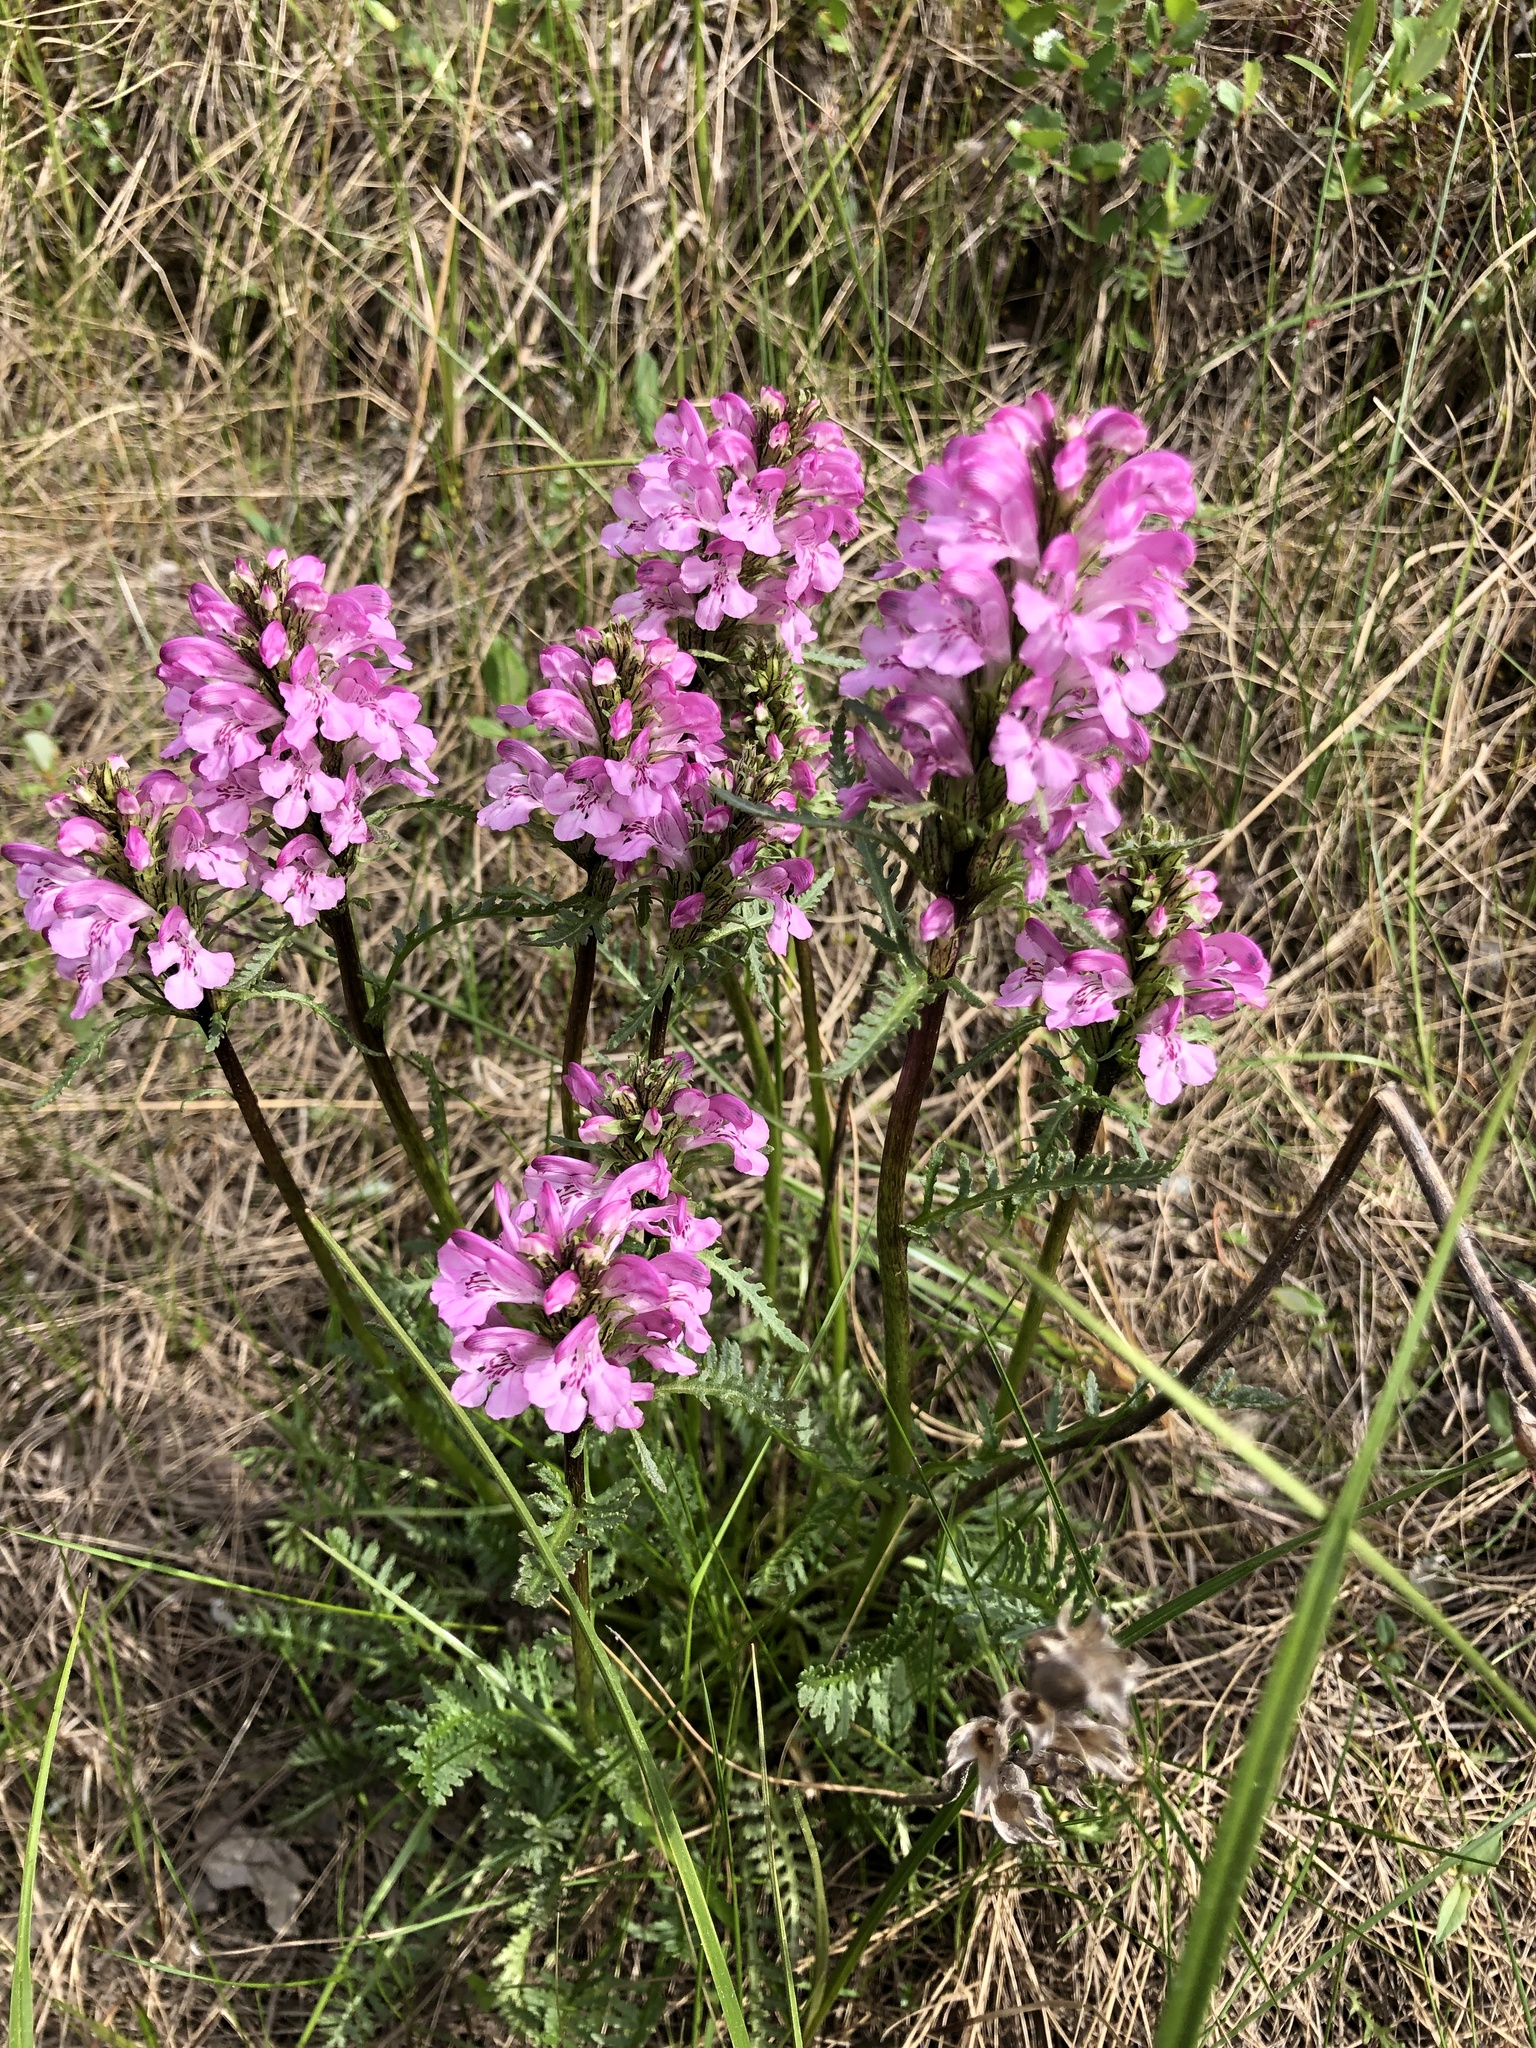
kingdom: Plantae
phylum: Tracheophyta
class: Magnoliopsida
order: Lamiales
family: Orobanchaceae
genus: Pedicularis
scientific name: Pedicularis sudetica
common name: Sudeten lousewort
